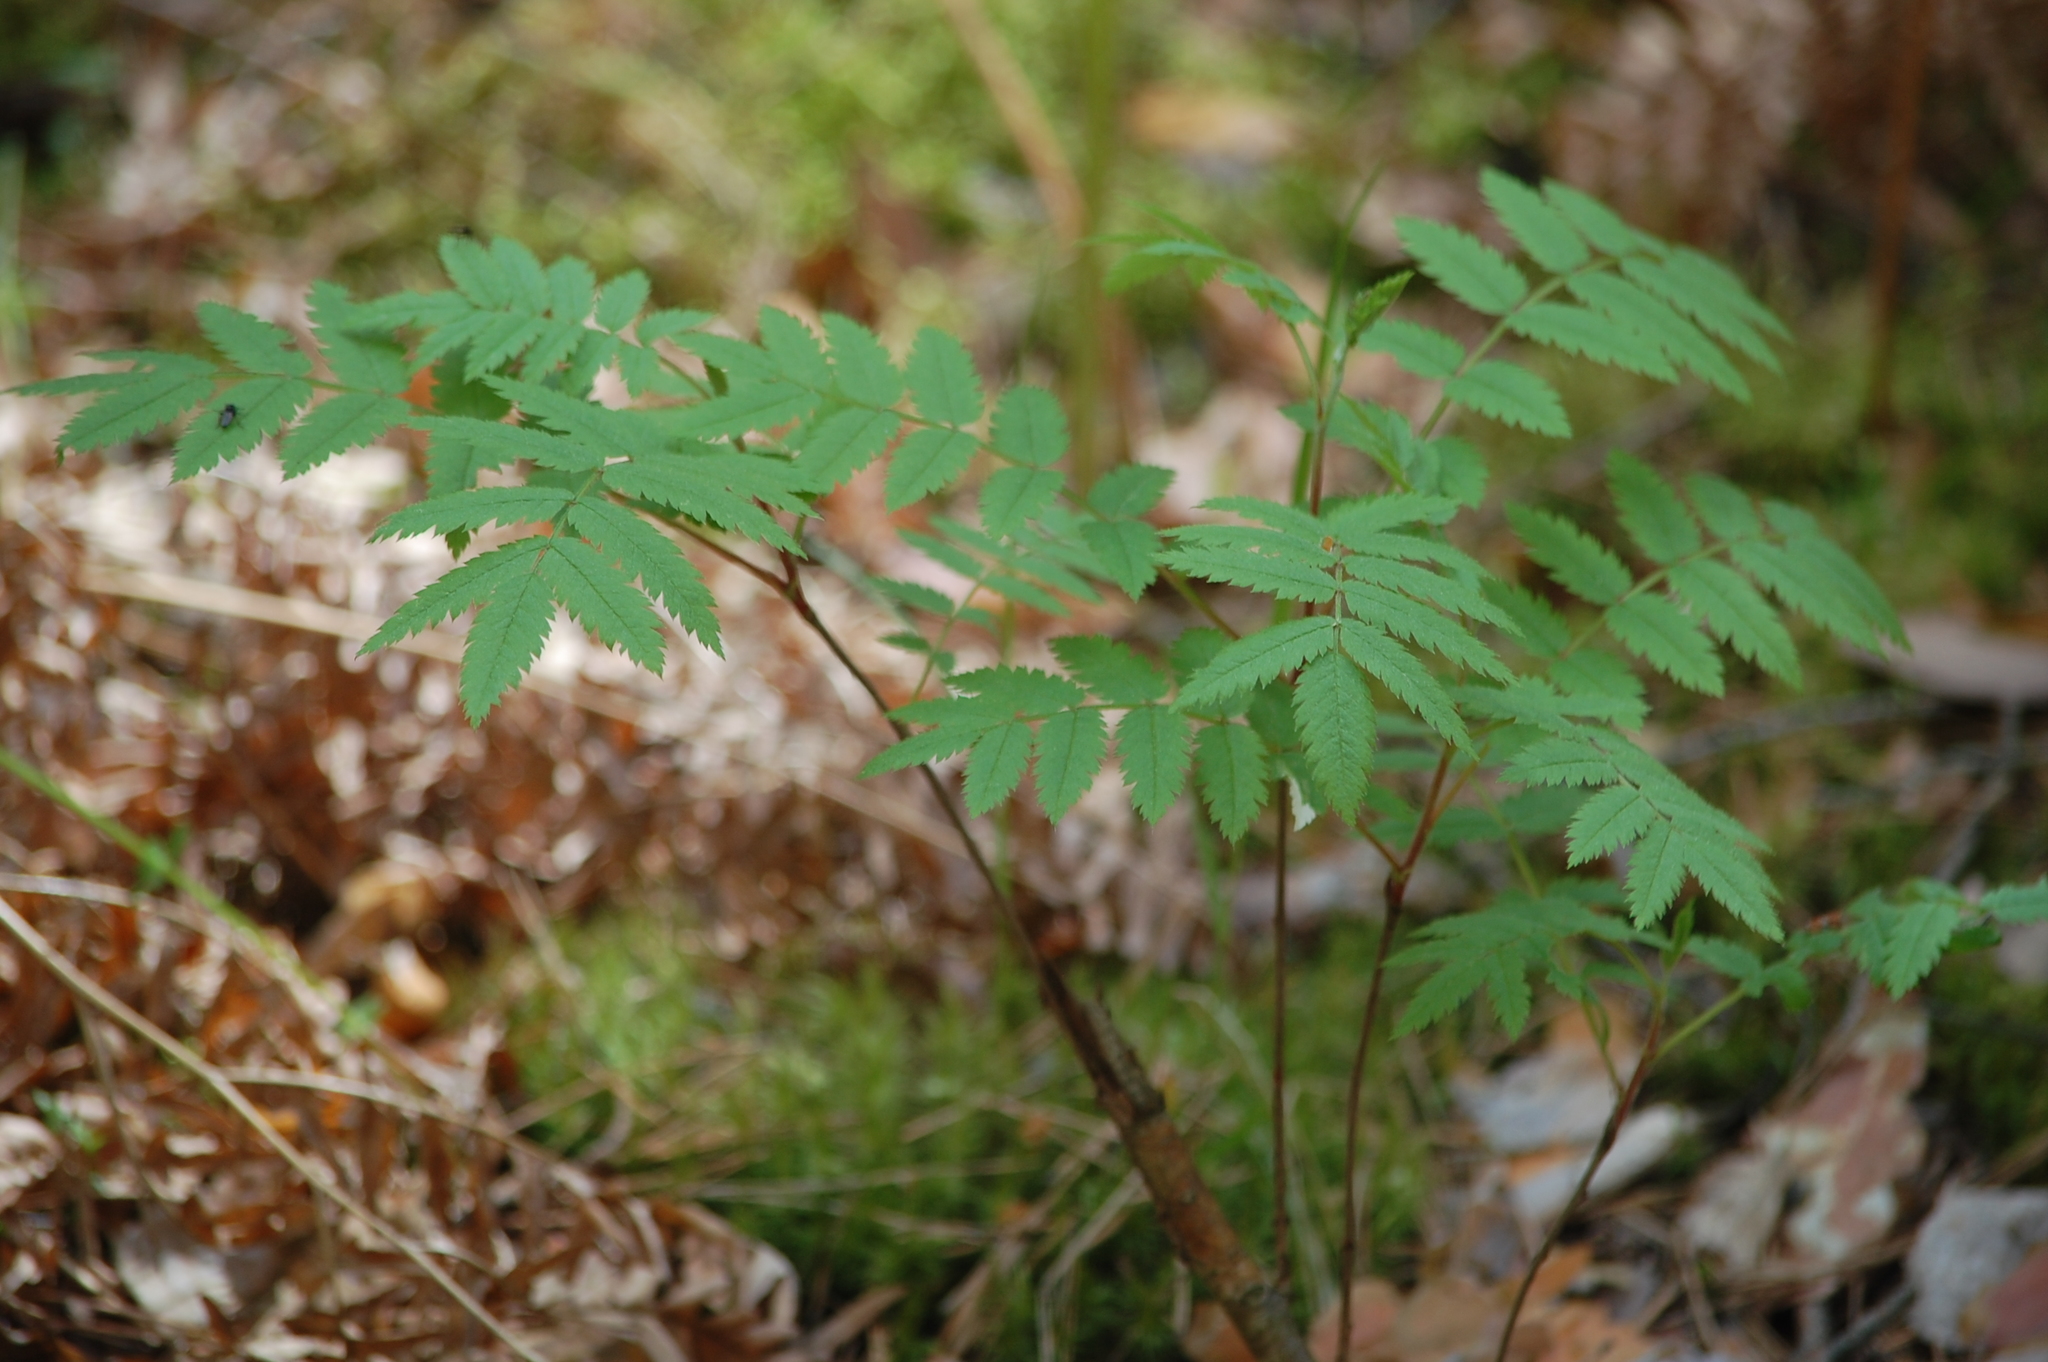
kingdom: Plantae
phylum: Tracheophyta
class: Magnoliopsida
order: Rosales
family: Rosaceae
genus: Sorbus
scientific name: Sorbus aucuparia
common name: Rowan
